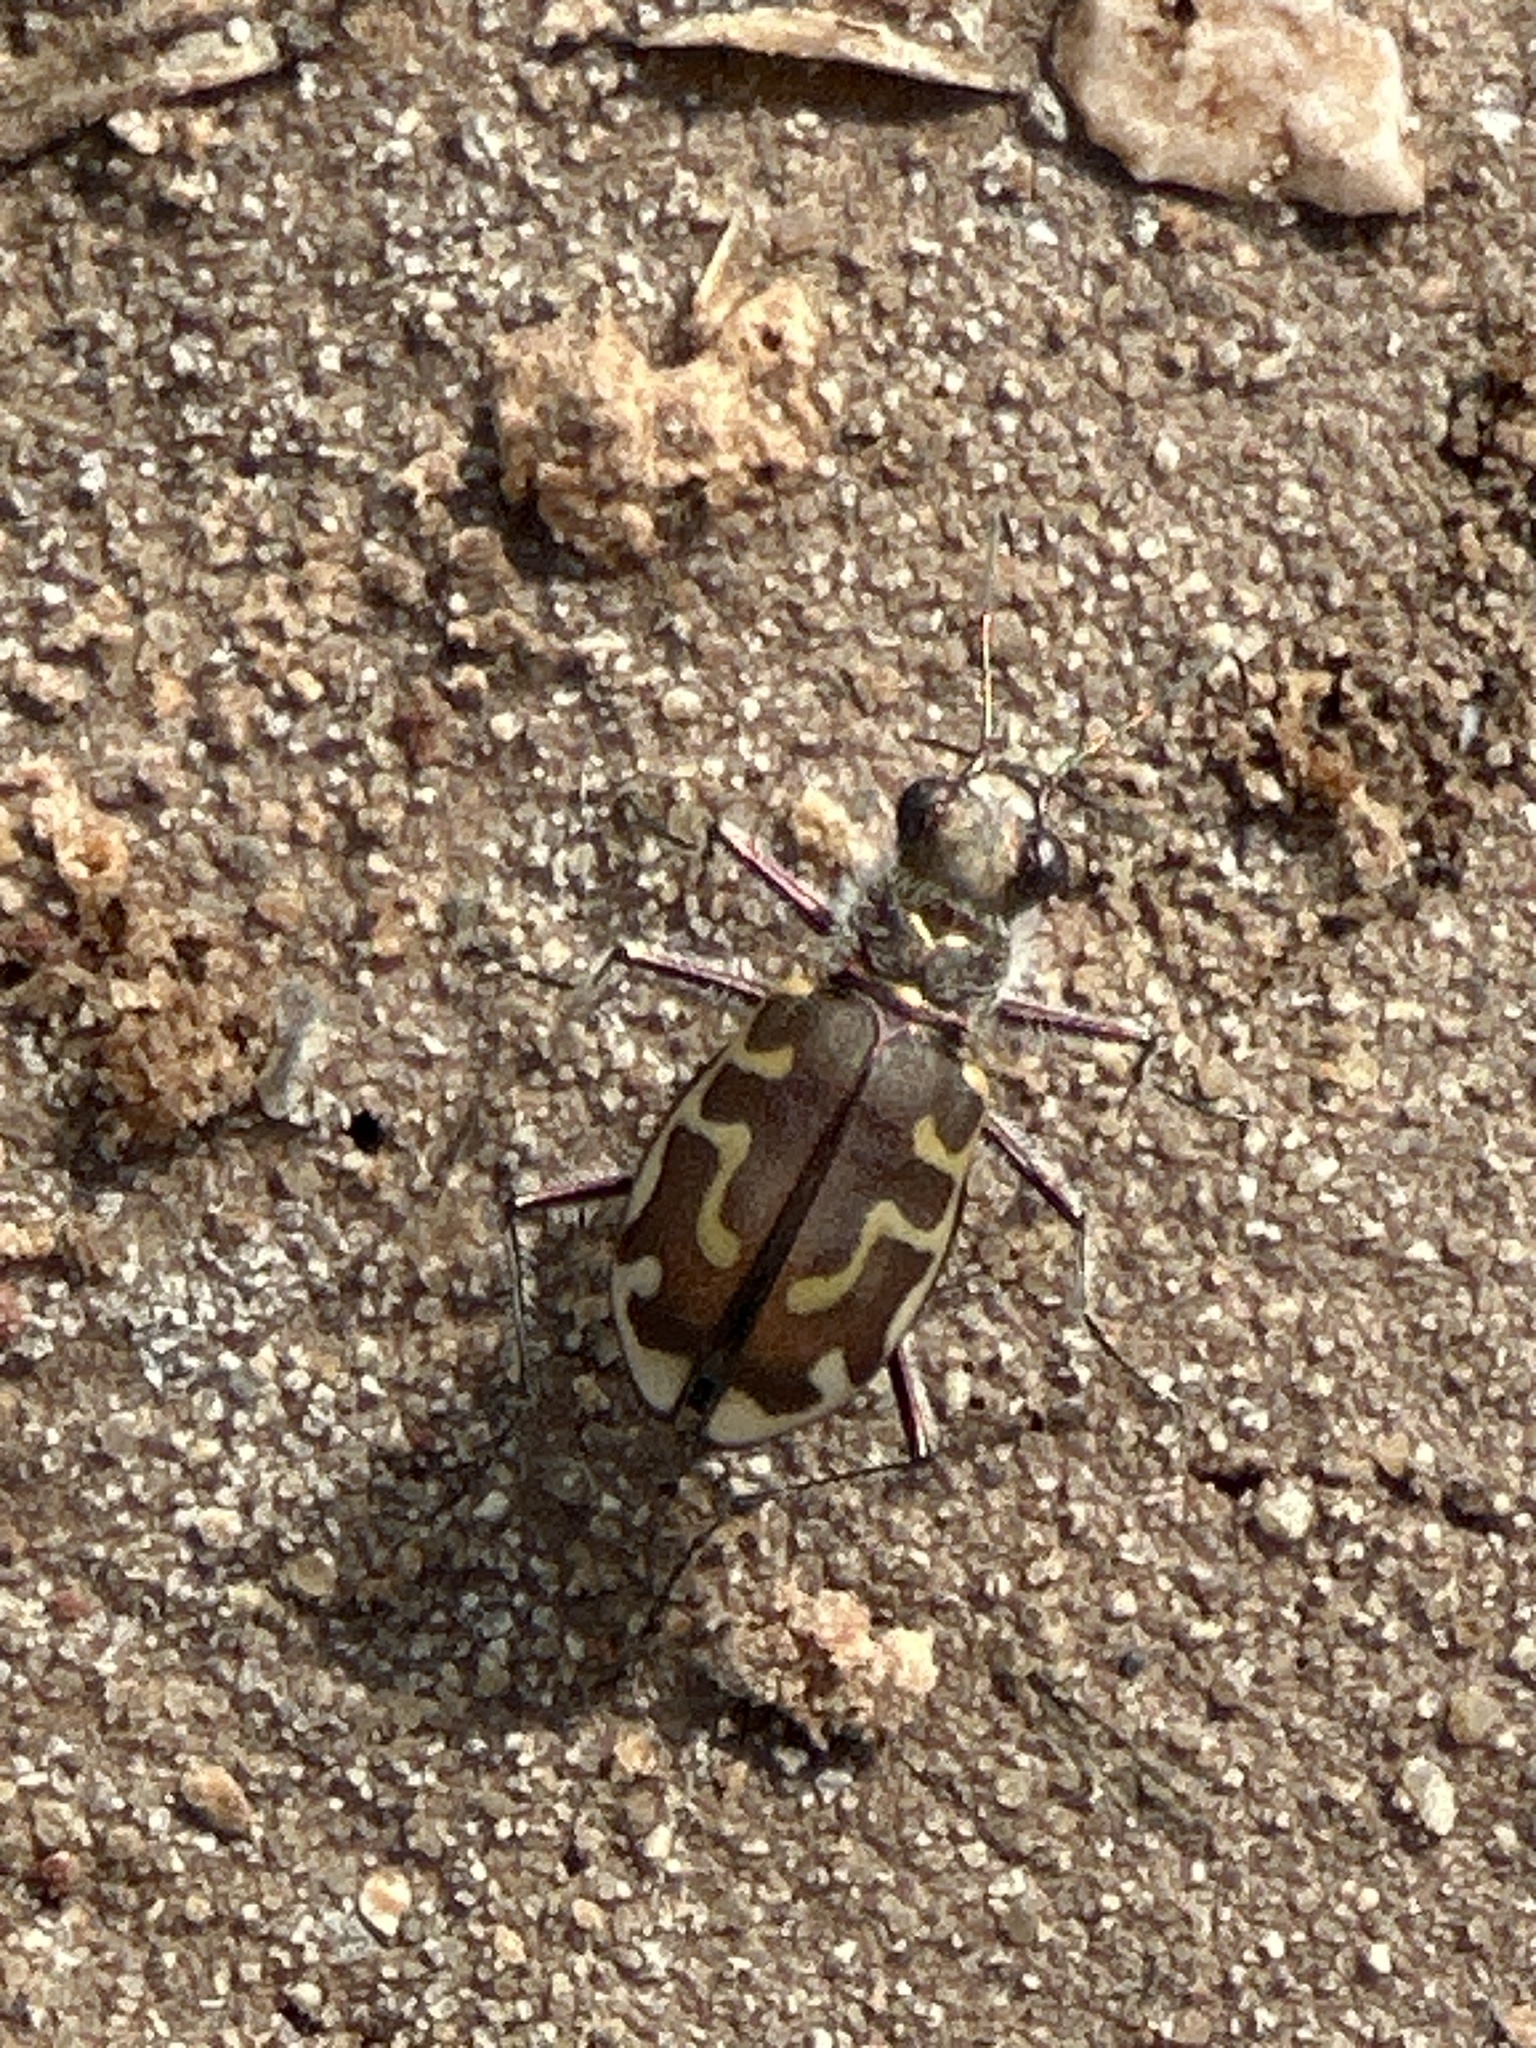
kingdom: Animalia
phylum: Arthropoda
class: Insecta
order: Coleoptera
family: Carabidae
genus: Cicindela
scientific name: Cicindela hirticollis
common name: Hairy-necked tiger beetle
